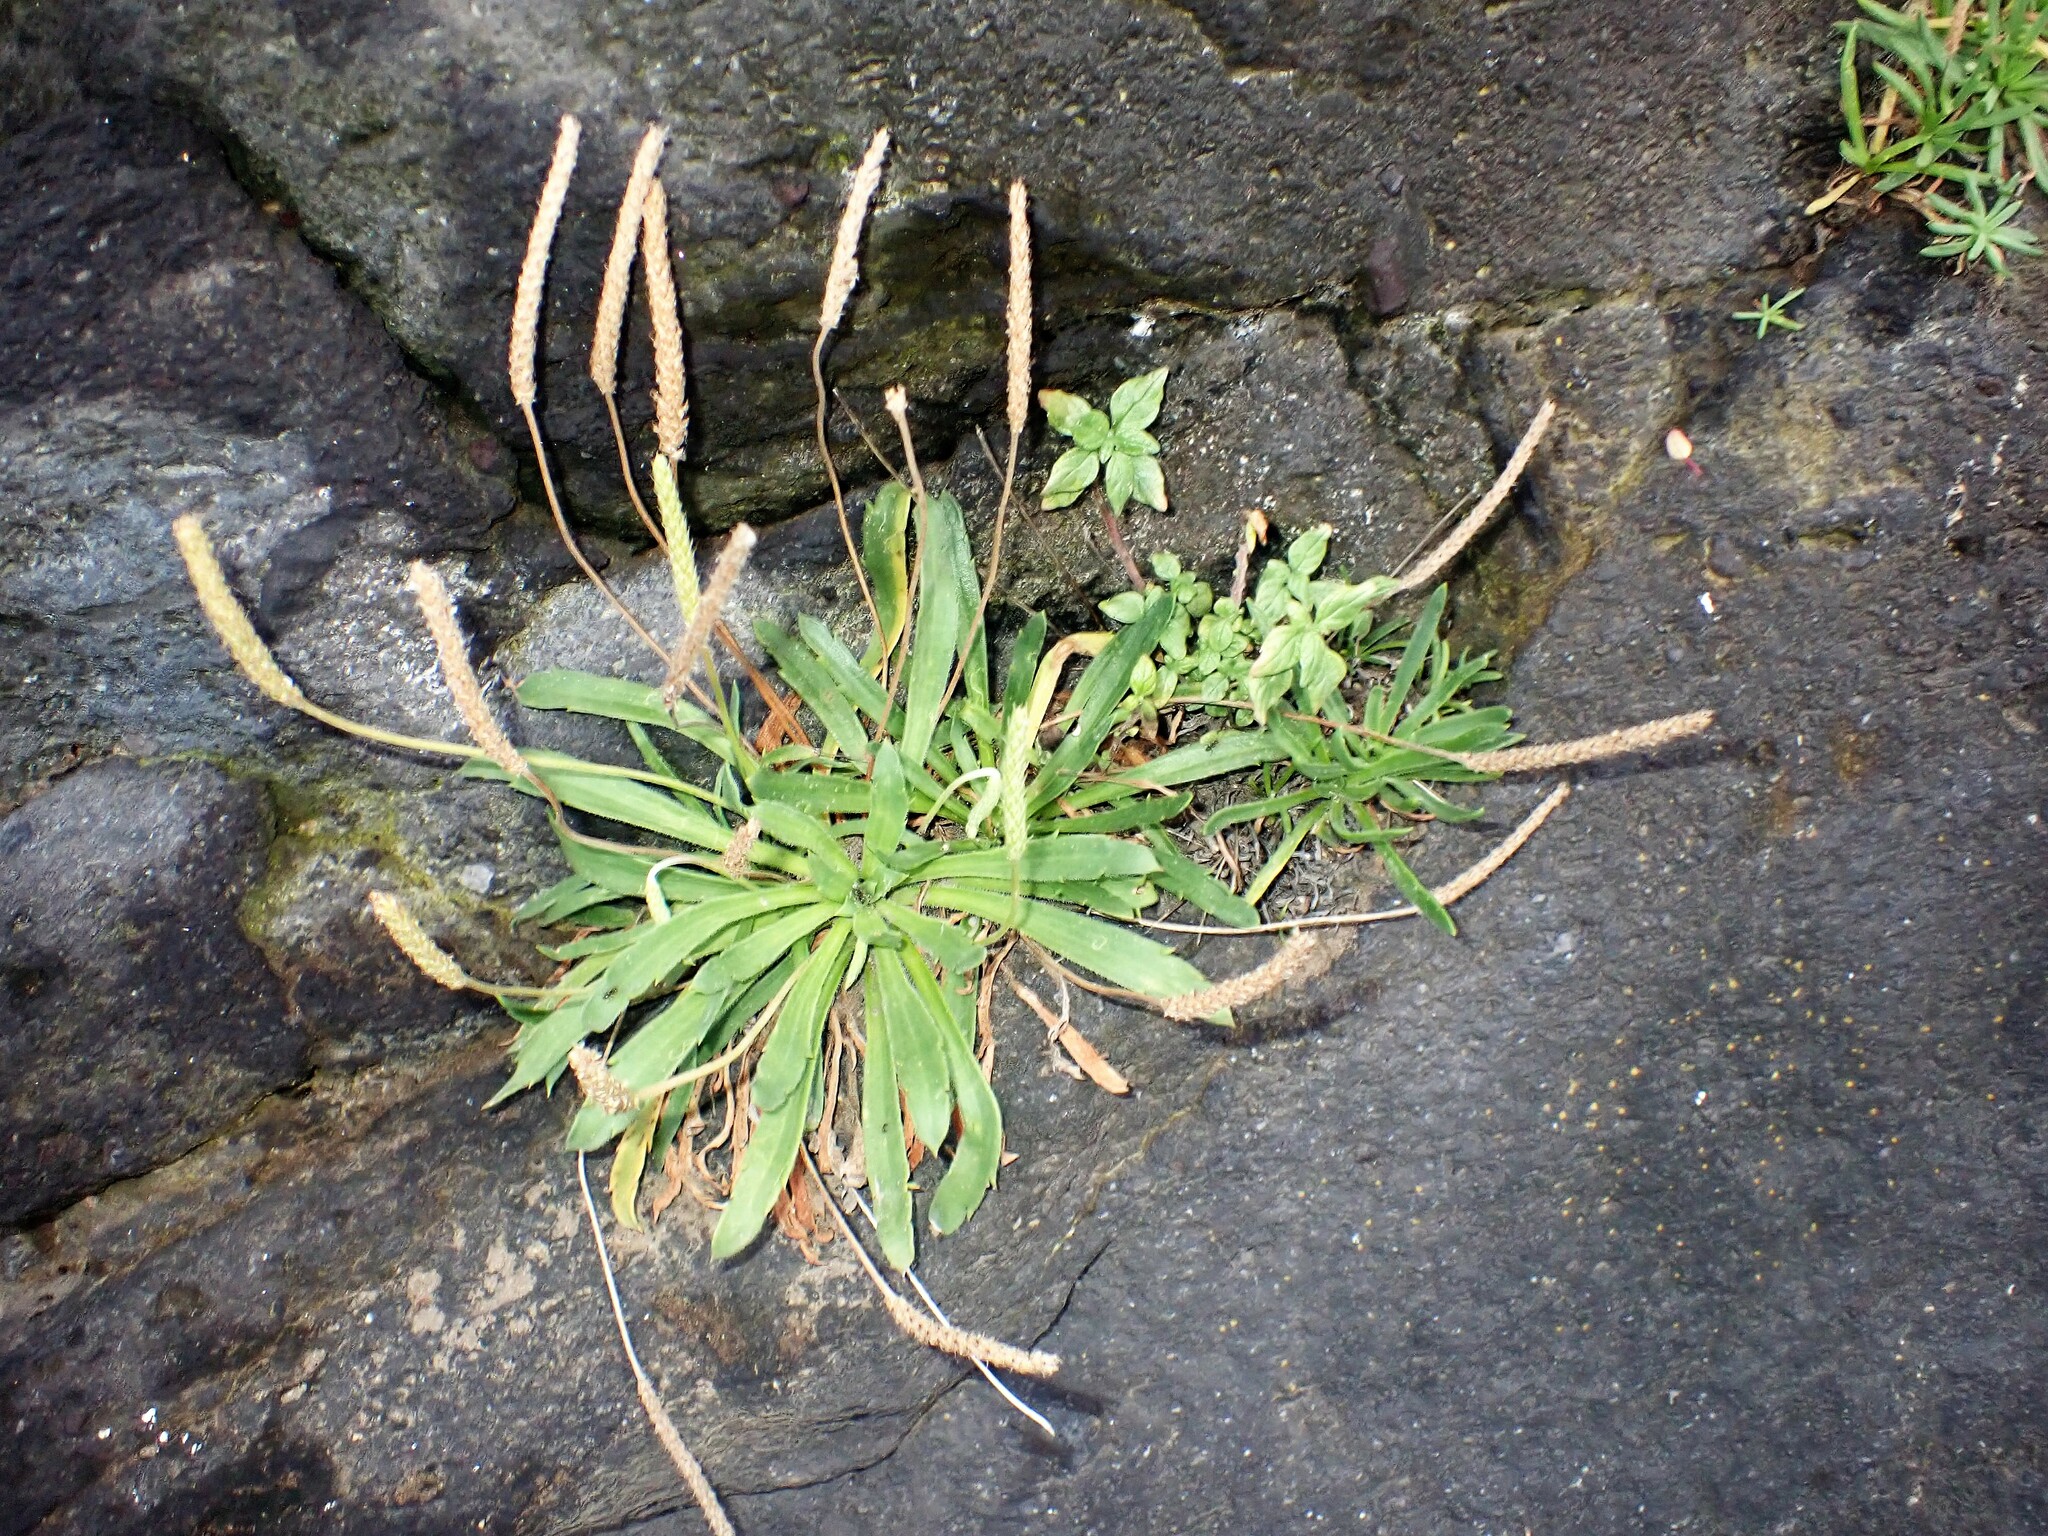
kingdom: Plantae
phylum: Tracheophyta
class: Magnoliopsida
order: Lamiales
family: Plantaginaceae
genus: Plantago
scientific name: Plantago coronopus
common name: Buck's-horn plantain
